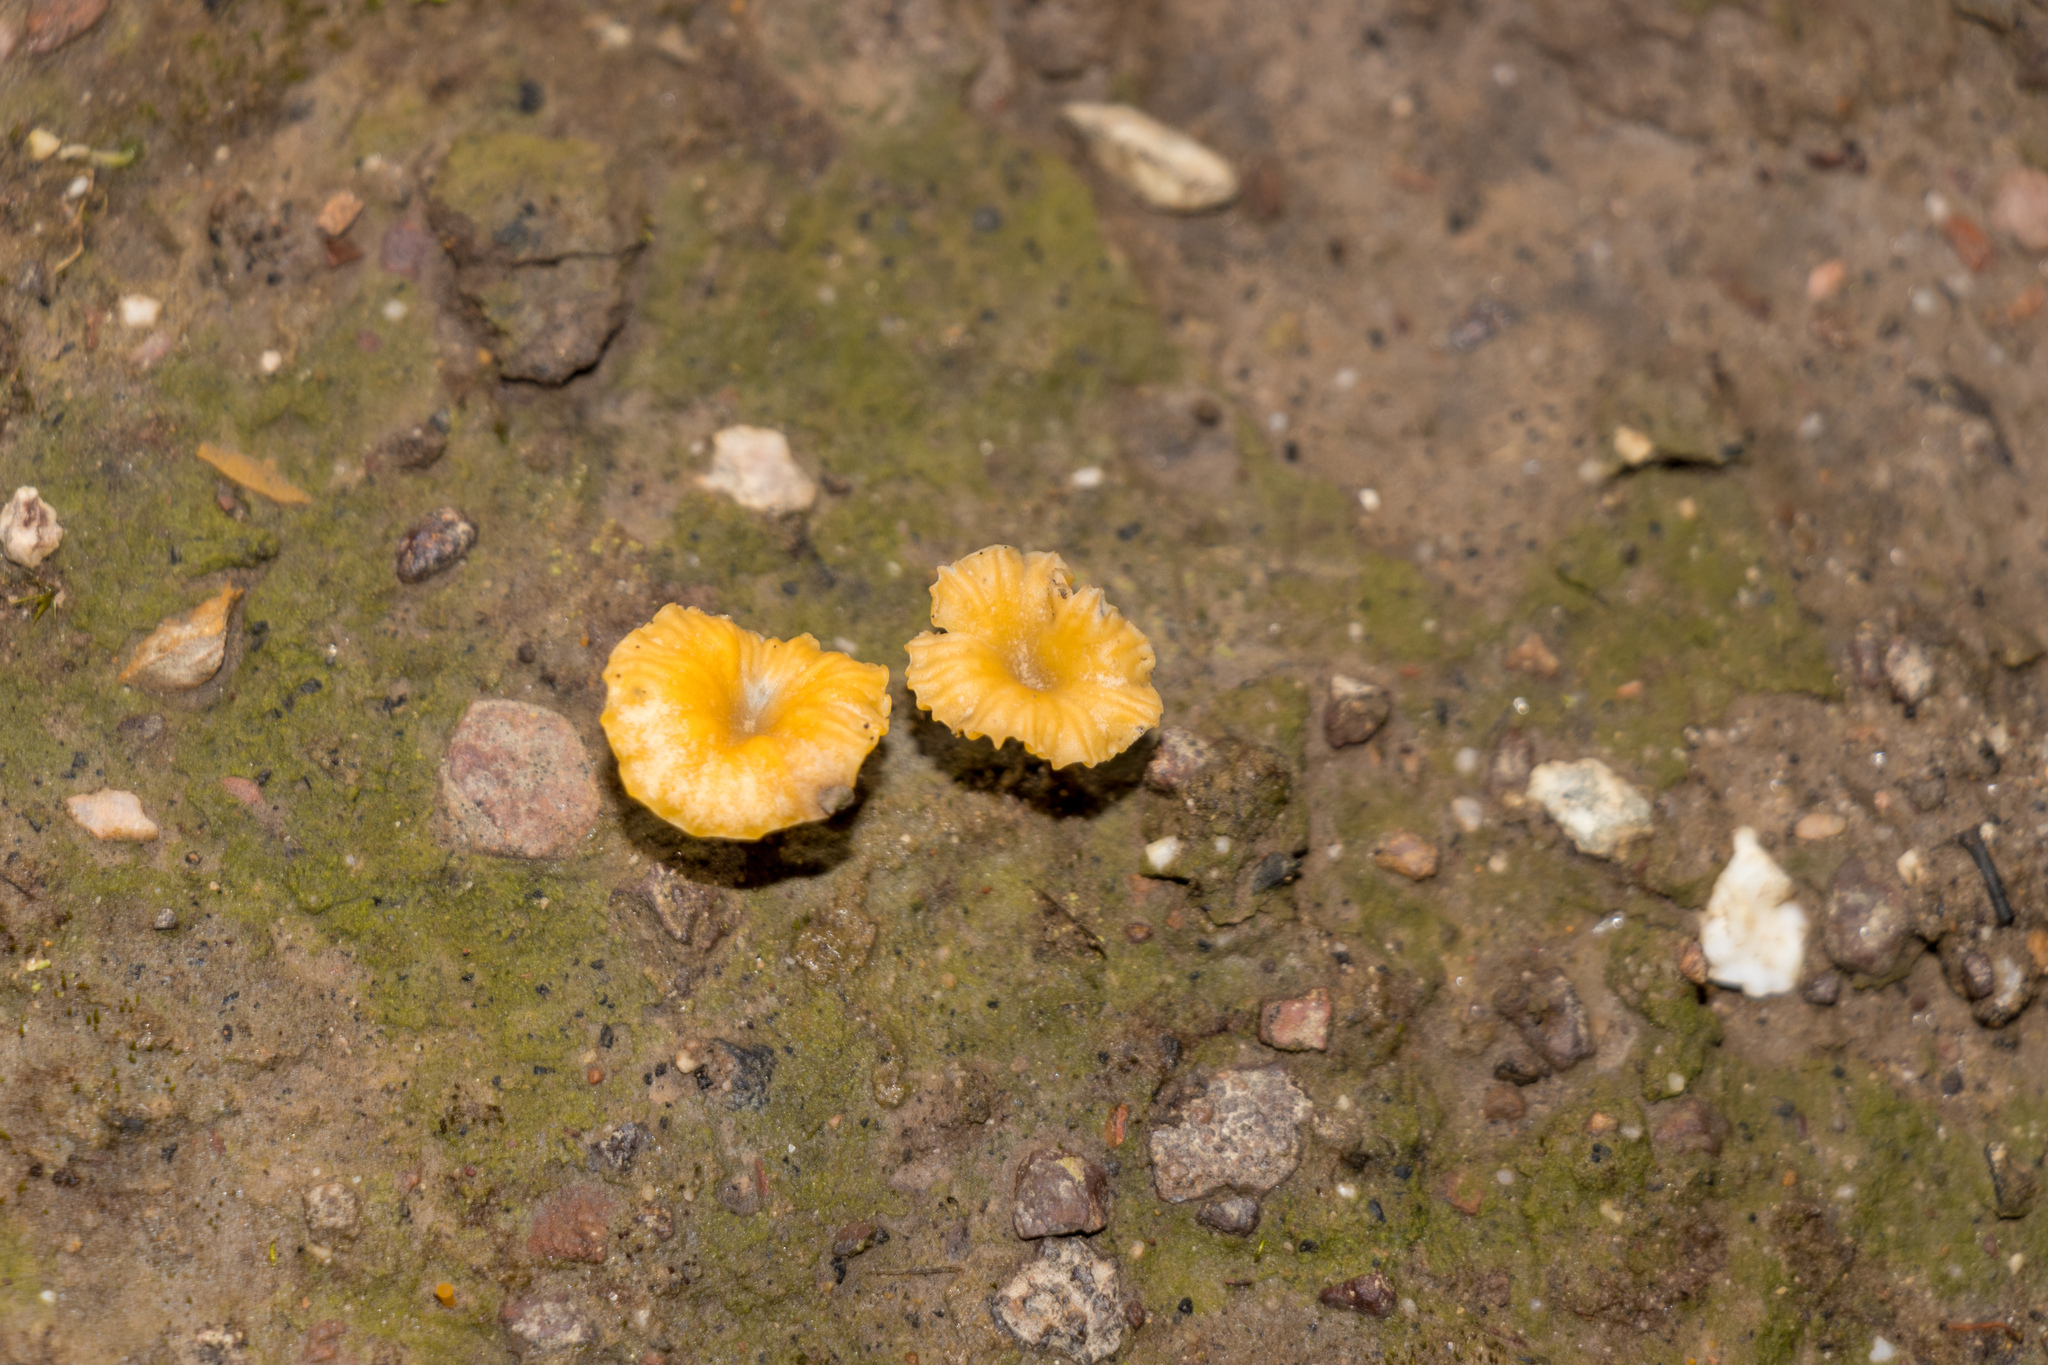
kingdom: Fungi
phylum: Basidiomycota
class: Agaricomycetes
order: Agaricales
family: Hygrophoraceae
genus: Lichenomphalia
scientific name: Lichenomphalia chromacea
